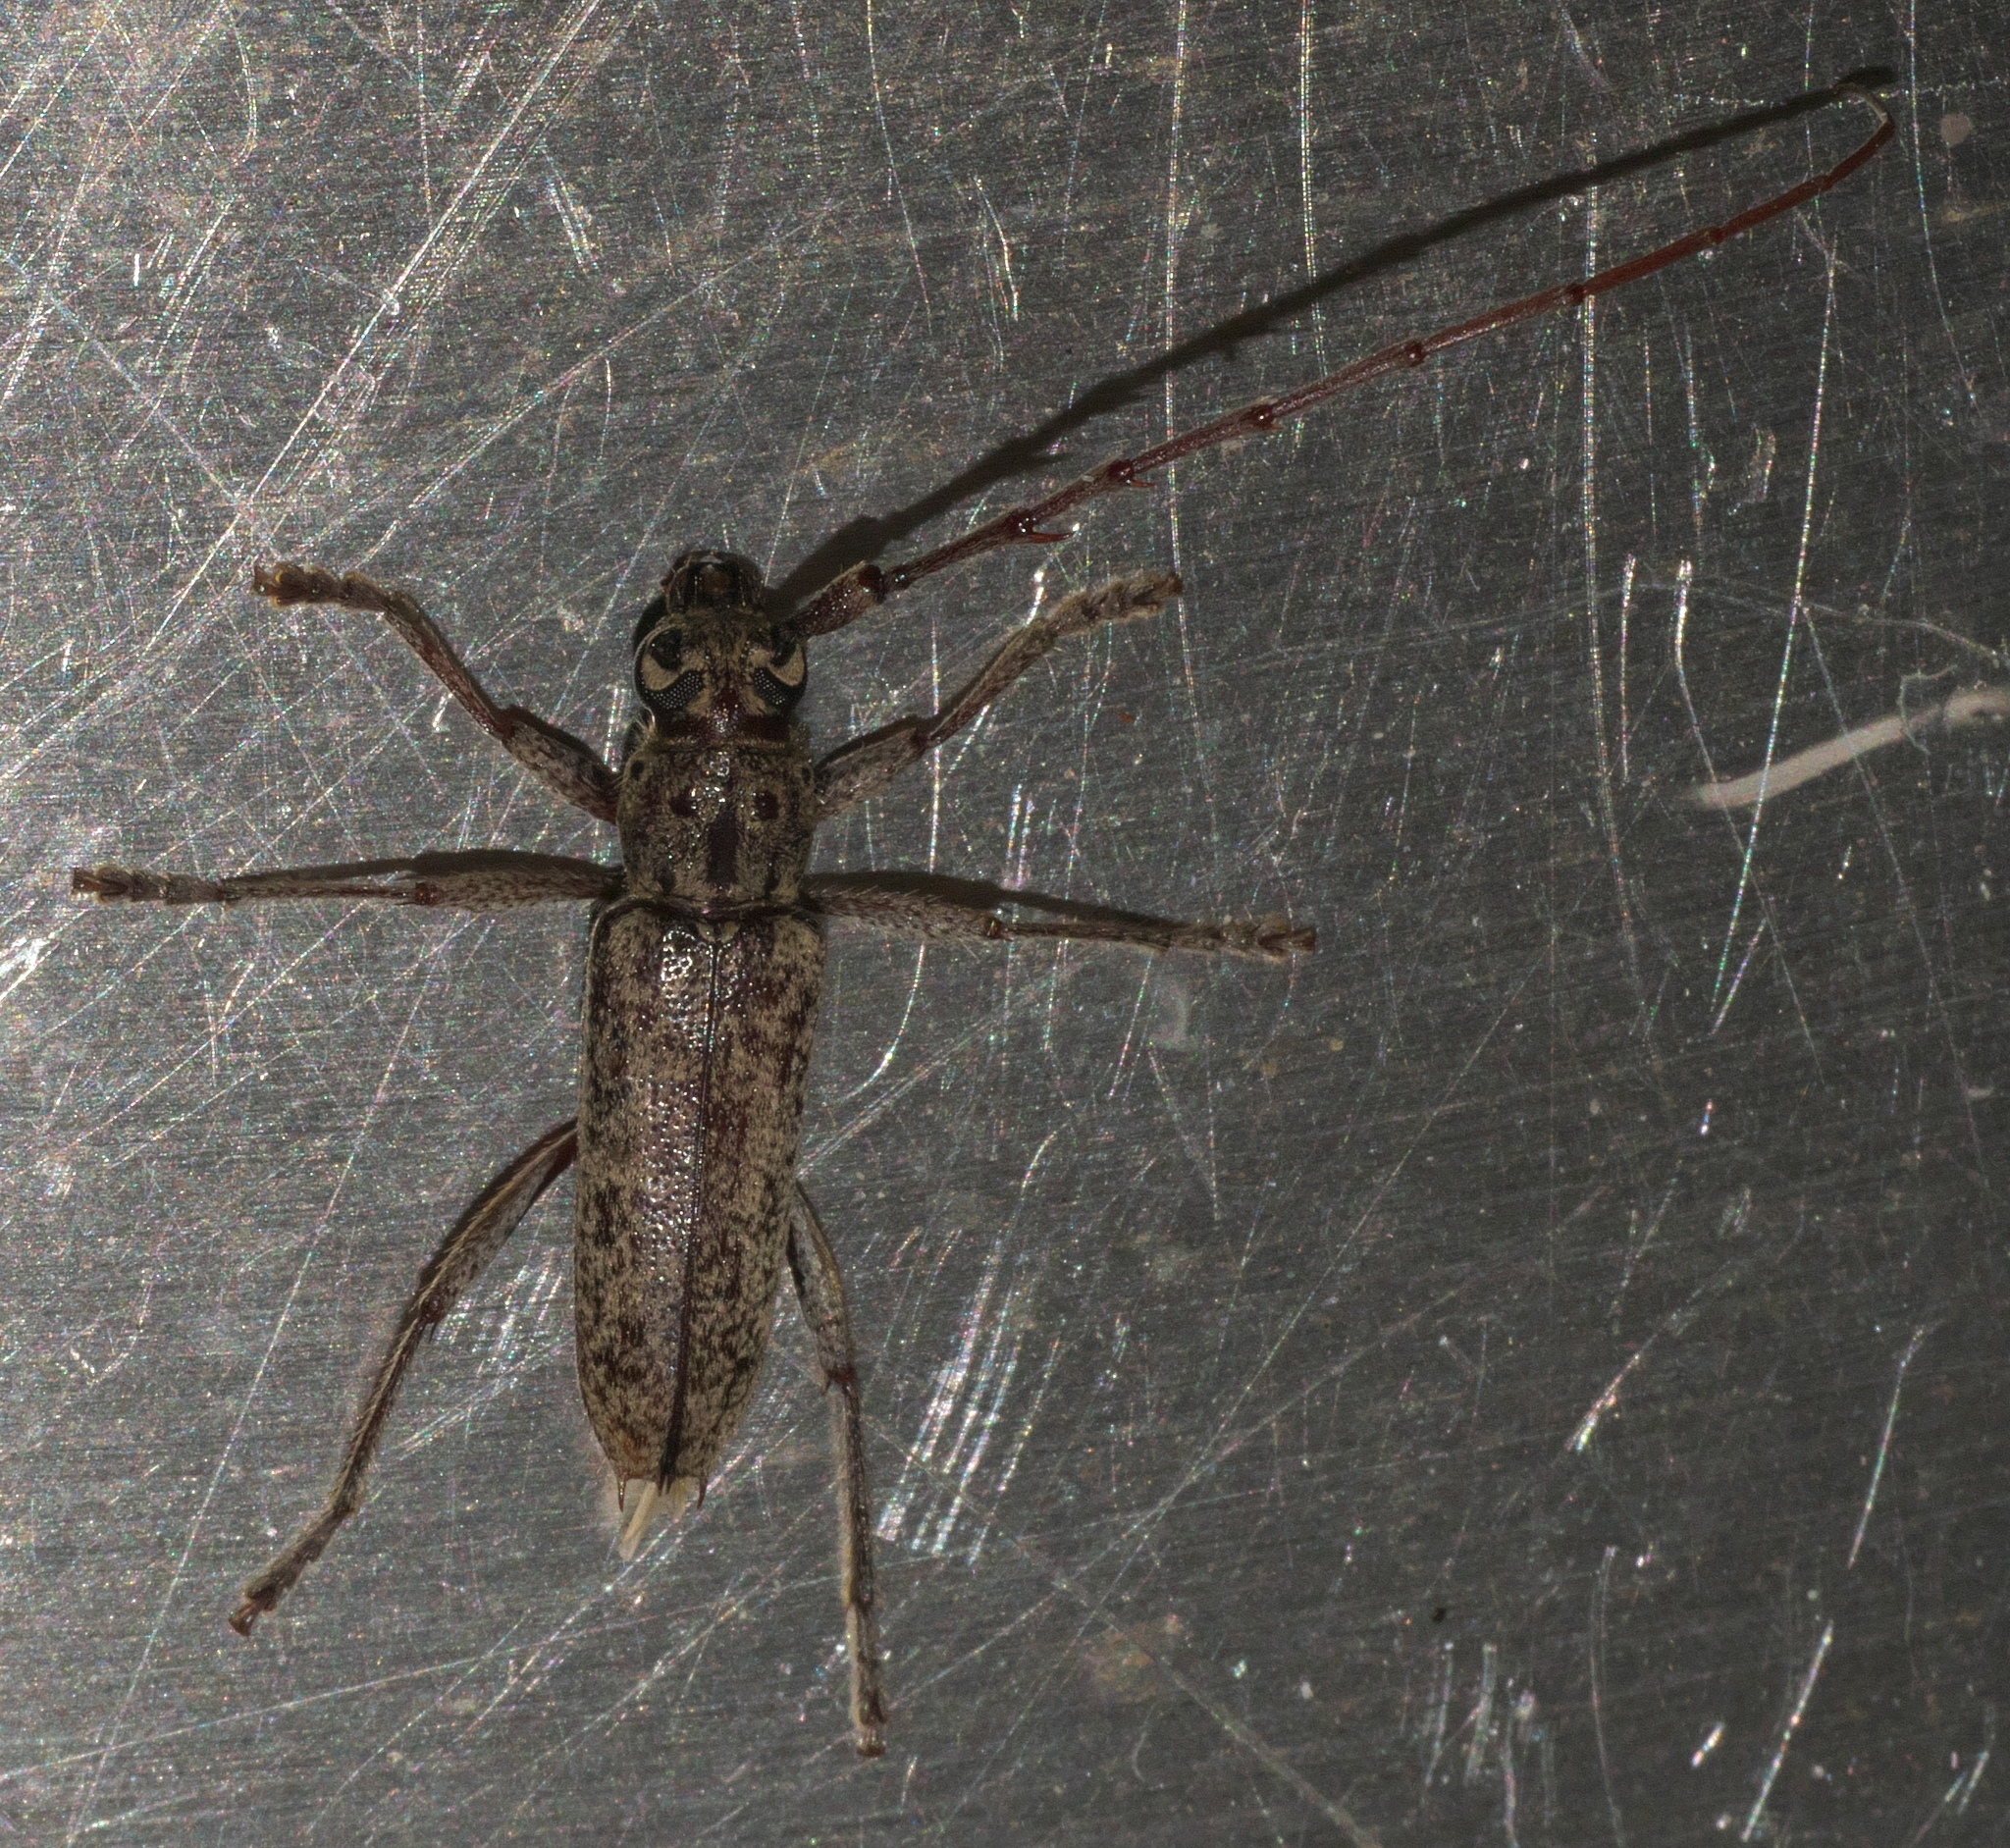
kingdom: Animalia
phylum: Arthropoda
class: Insecta
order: Coleoptera
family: Cerambycidae
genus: Elaphidion
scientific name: Elaphidion mucronatum
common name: Spined oak borer
